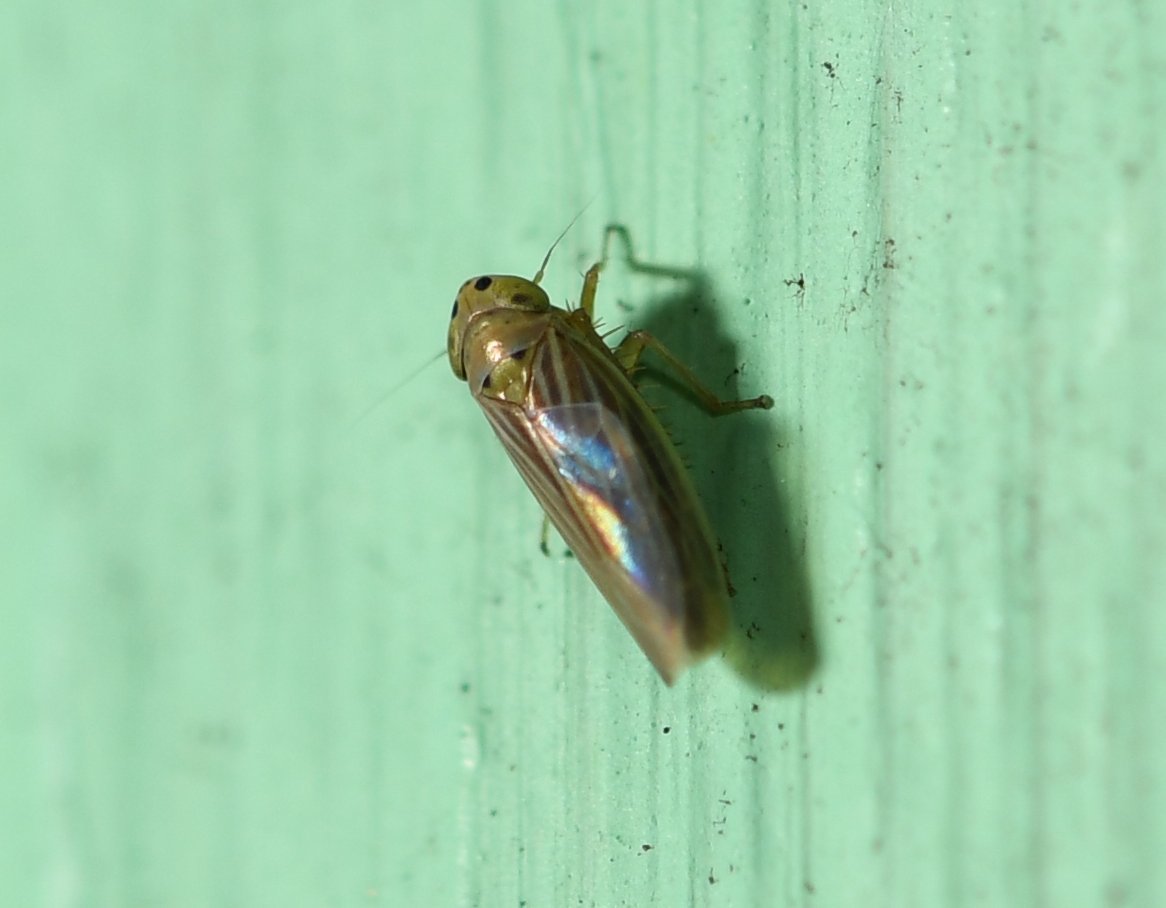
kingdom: Animalia
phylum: Arthropoda
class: Insecta
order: Hemiptera
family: Cicadellidae
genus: Graminella
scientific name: Graminella cognita
